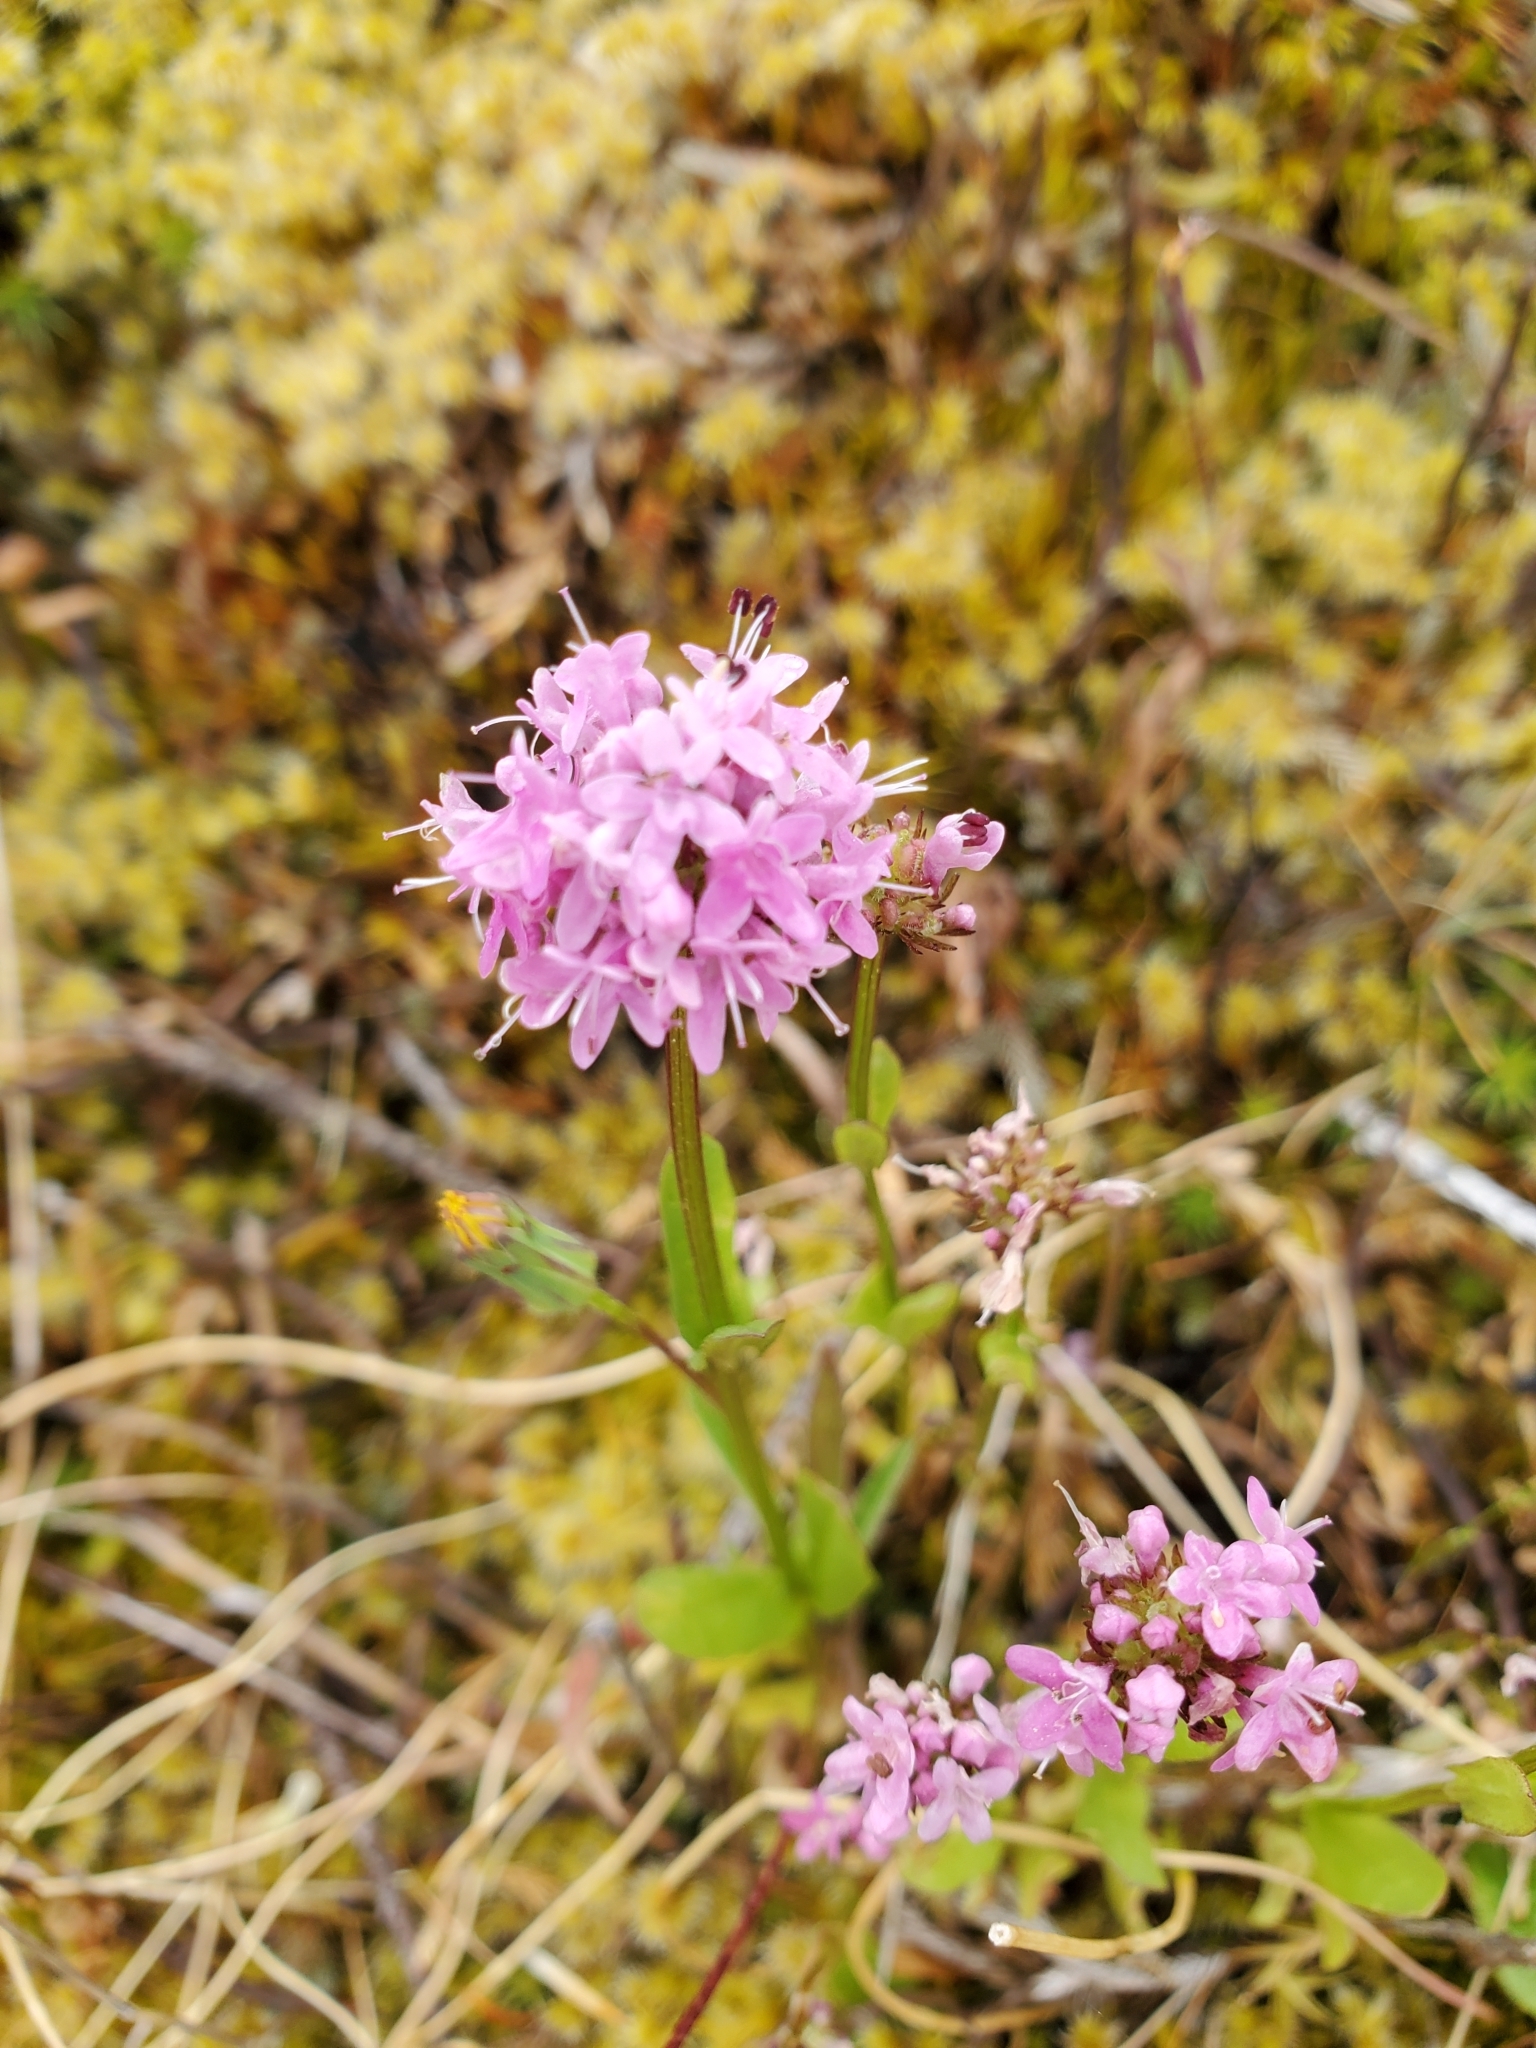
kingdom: Plantae
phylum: Tracheophyta
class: Magnoliopsida
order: Dipsacales
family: Caprifoliaceae
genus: Plectritis
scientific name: Plectritis congesta
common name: Pink plectritis
